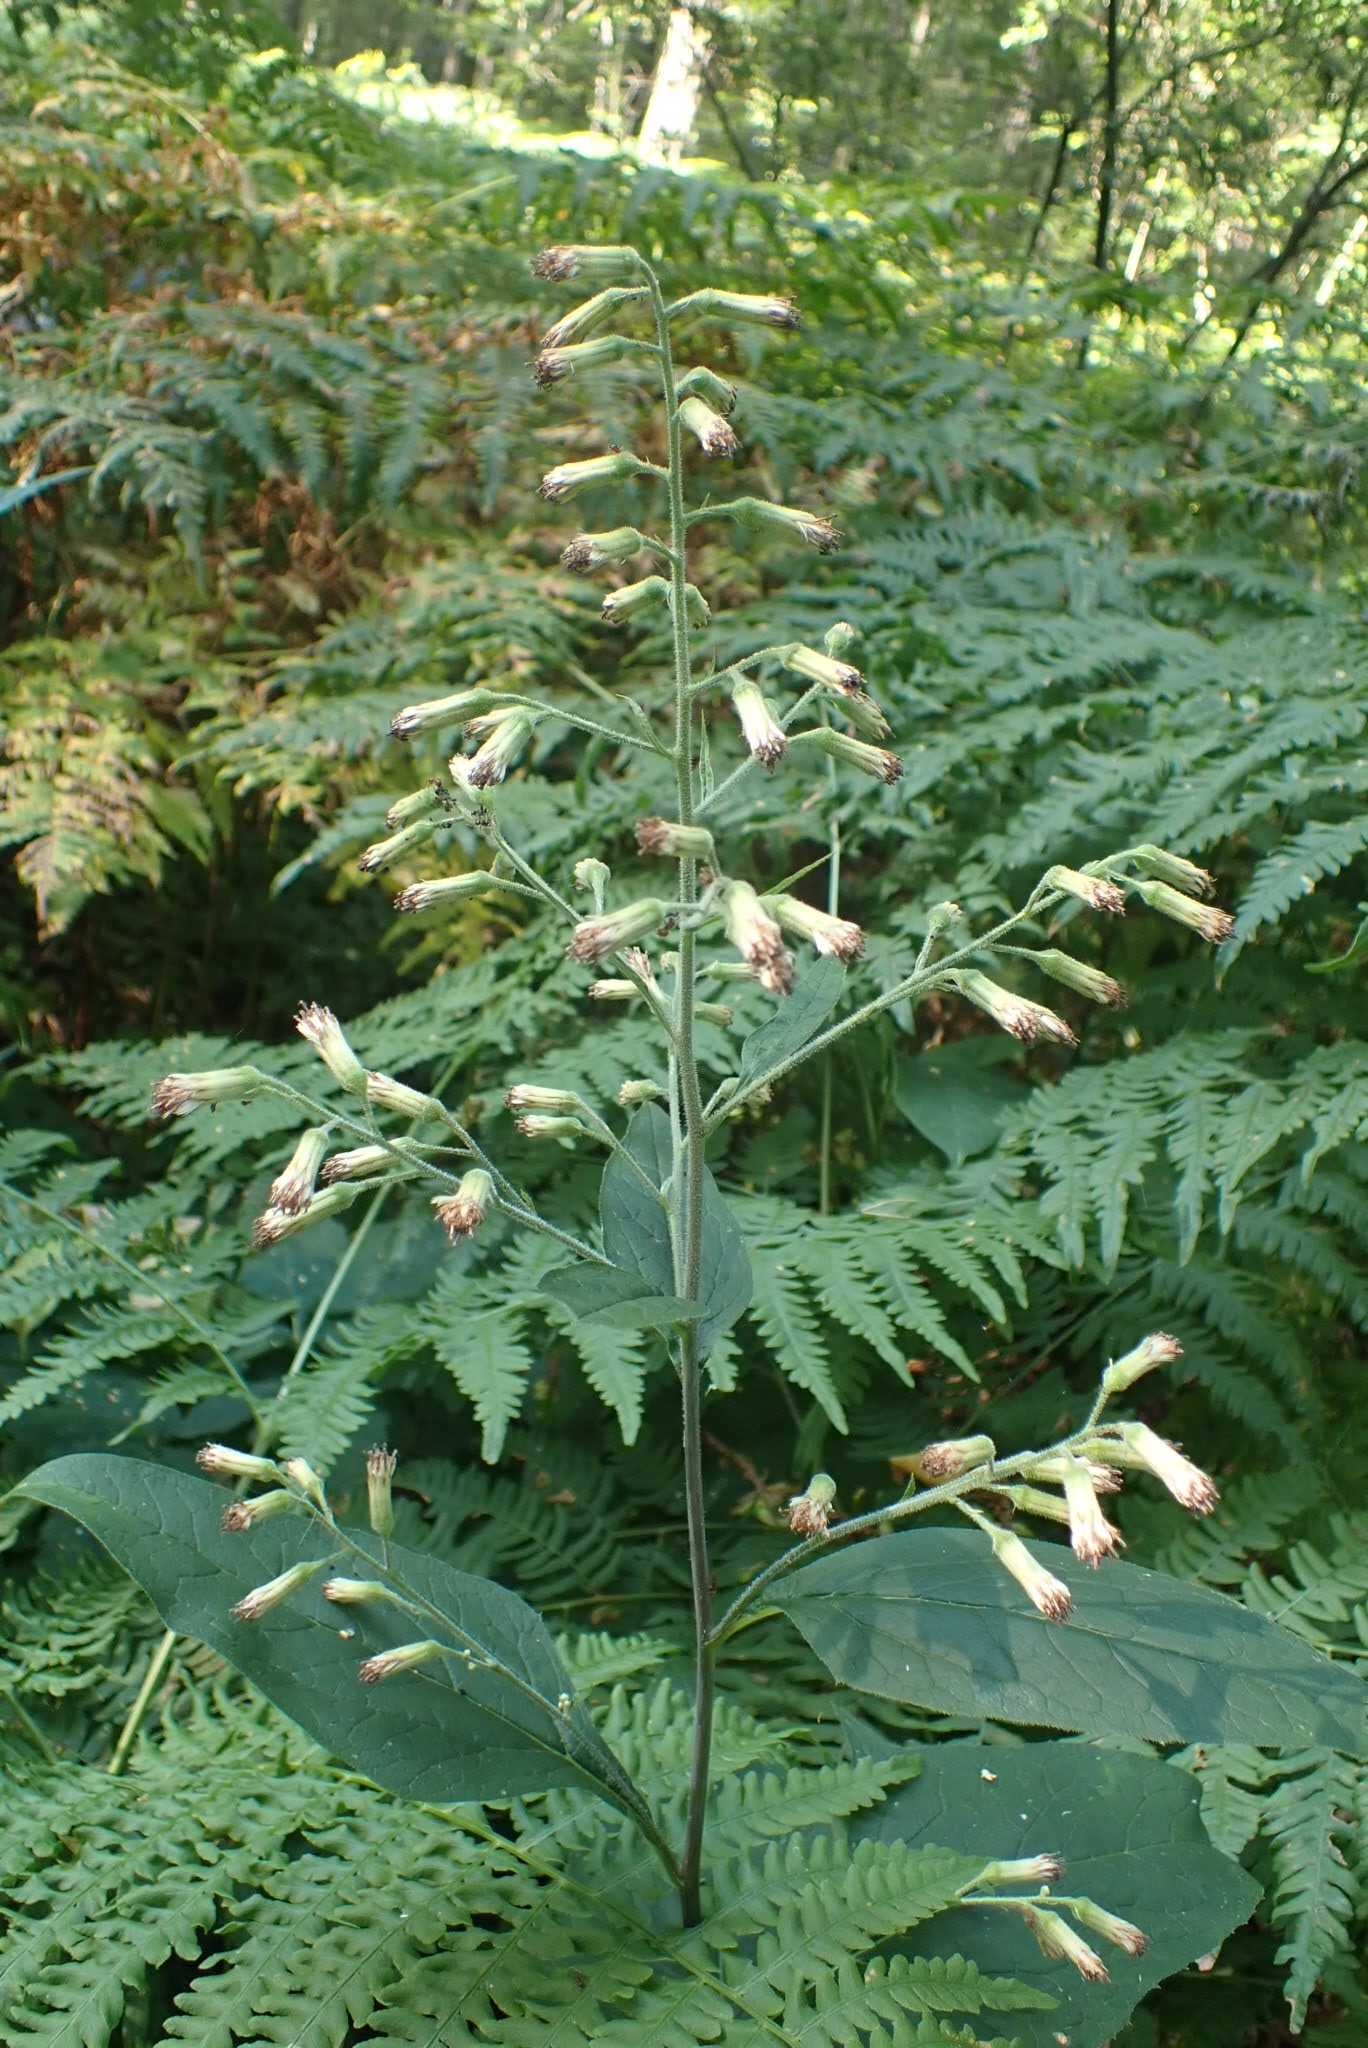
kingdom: Plantae
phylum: Tracheophyta
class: Magnoliopsida
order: Asterales
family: Asteraceae
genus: Parasenecio
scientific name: Parasenecio hastatus
